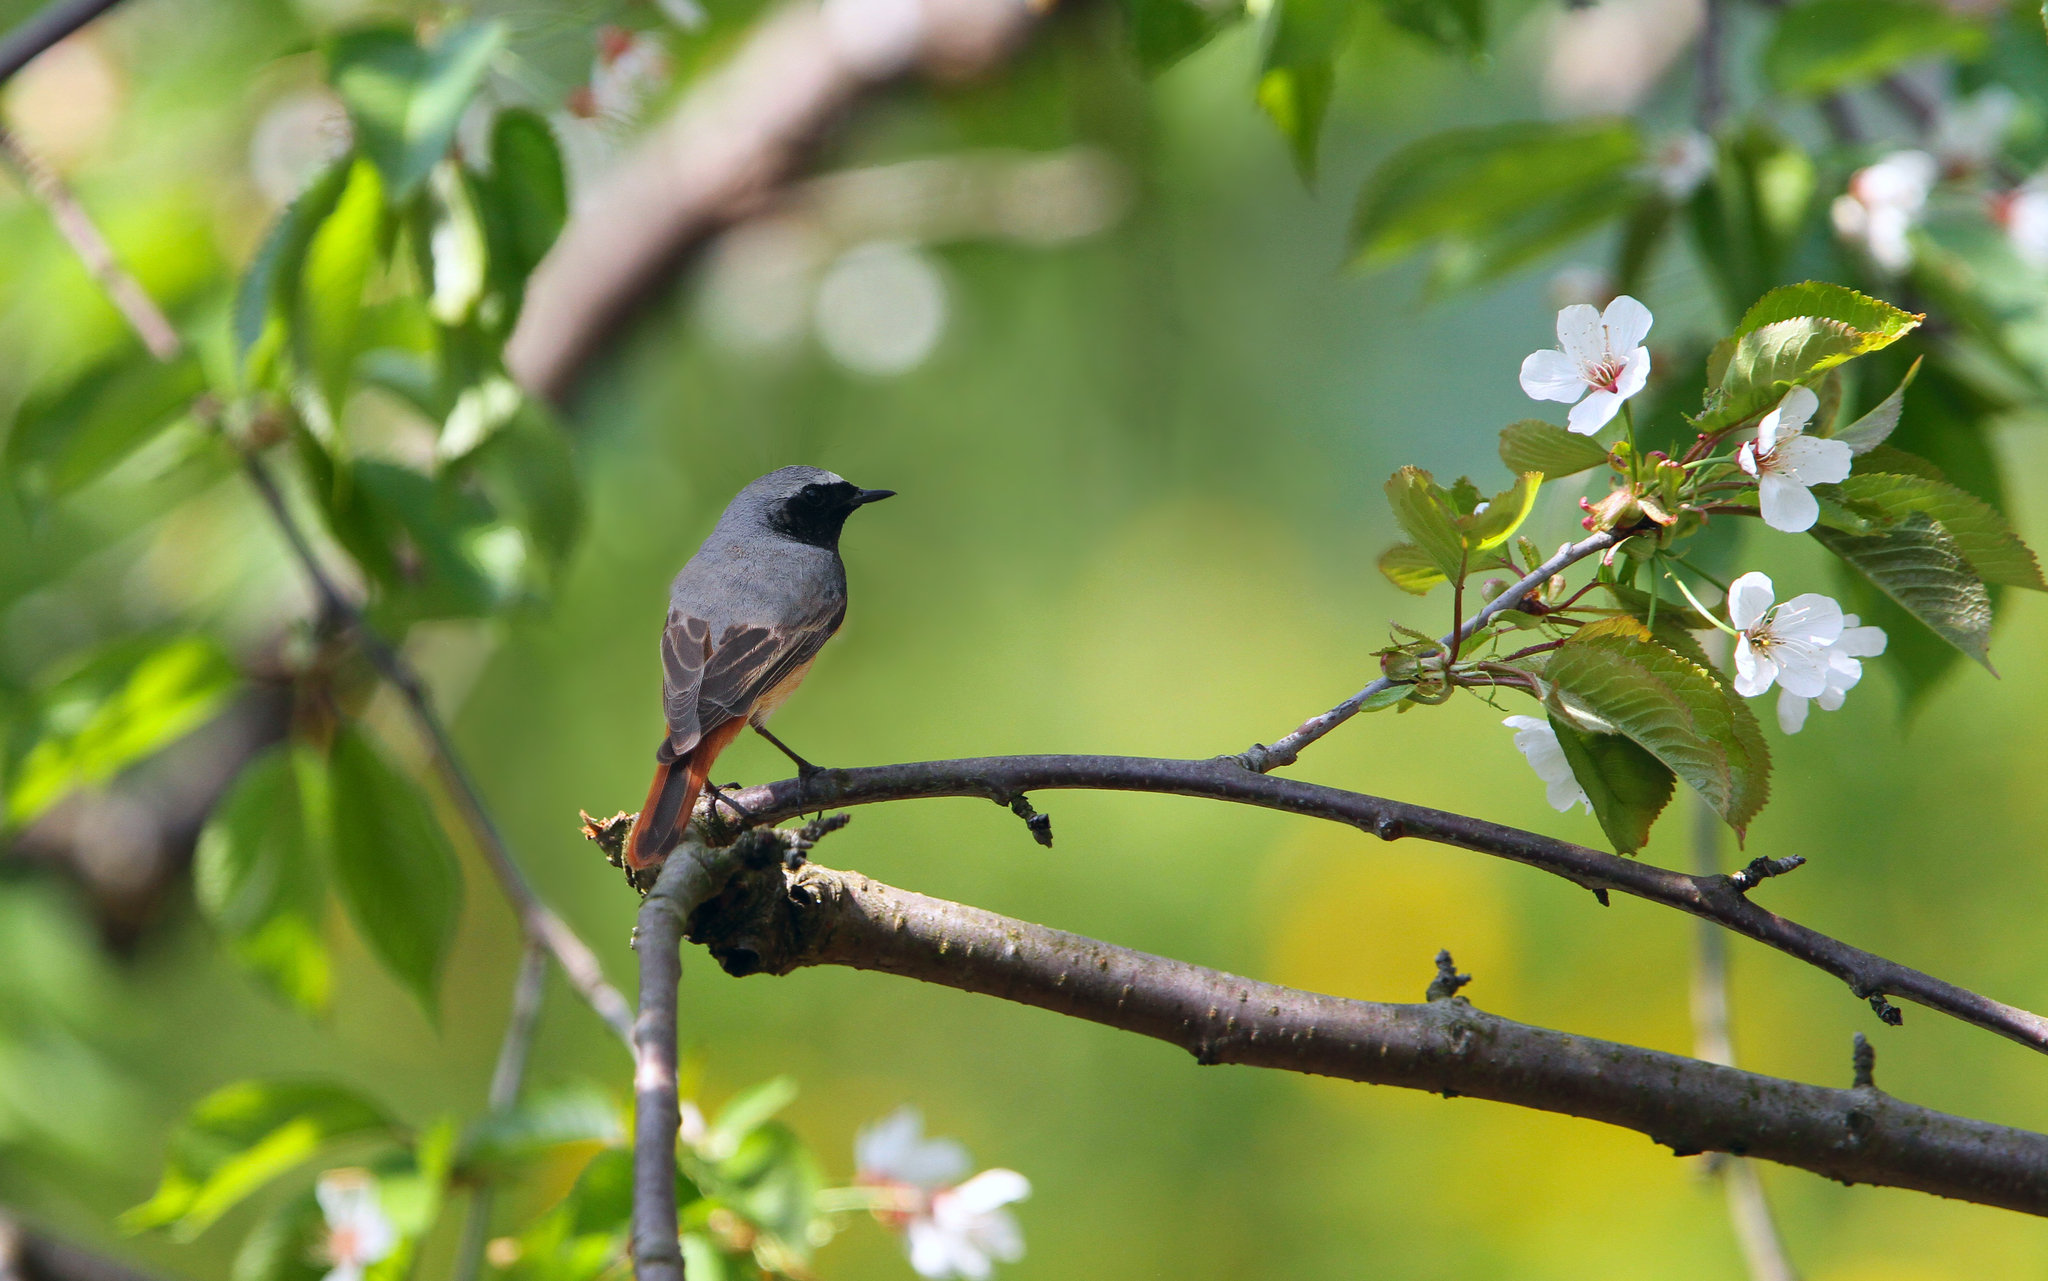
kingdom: Animalia
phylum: Chordata
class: Aves
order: Passeriformes
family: Muscicapidae
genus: Phoenicurus
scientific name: Phoenicurus phoenicurus
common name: Common redstart
